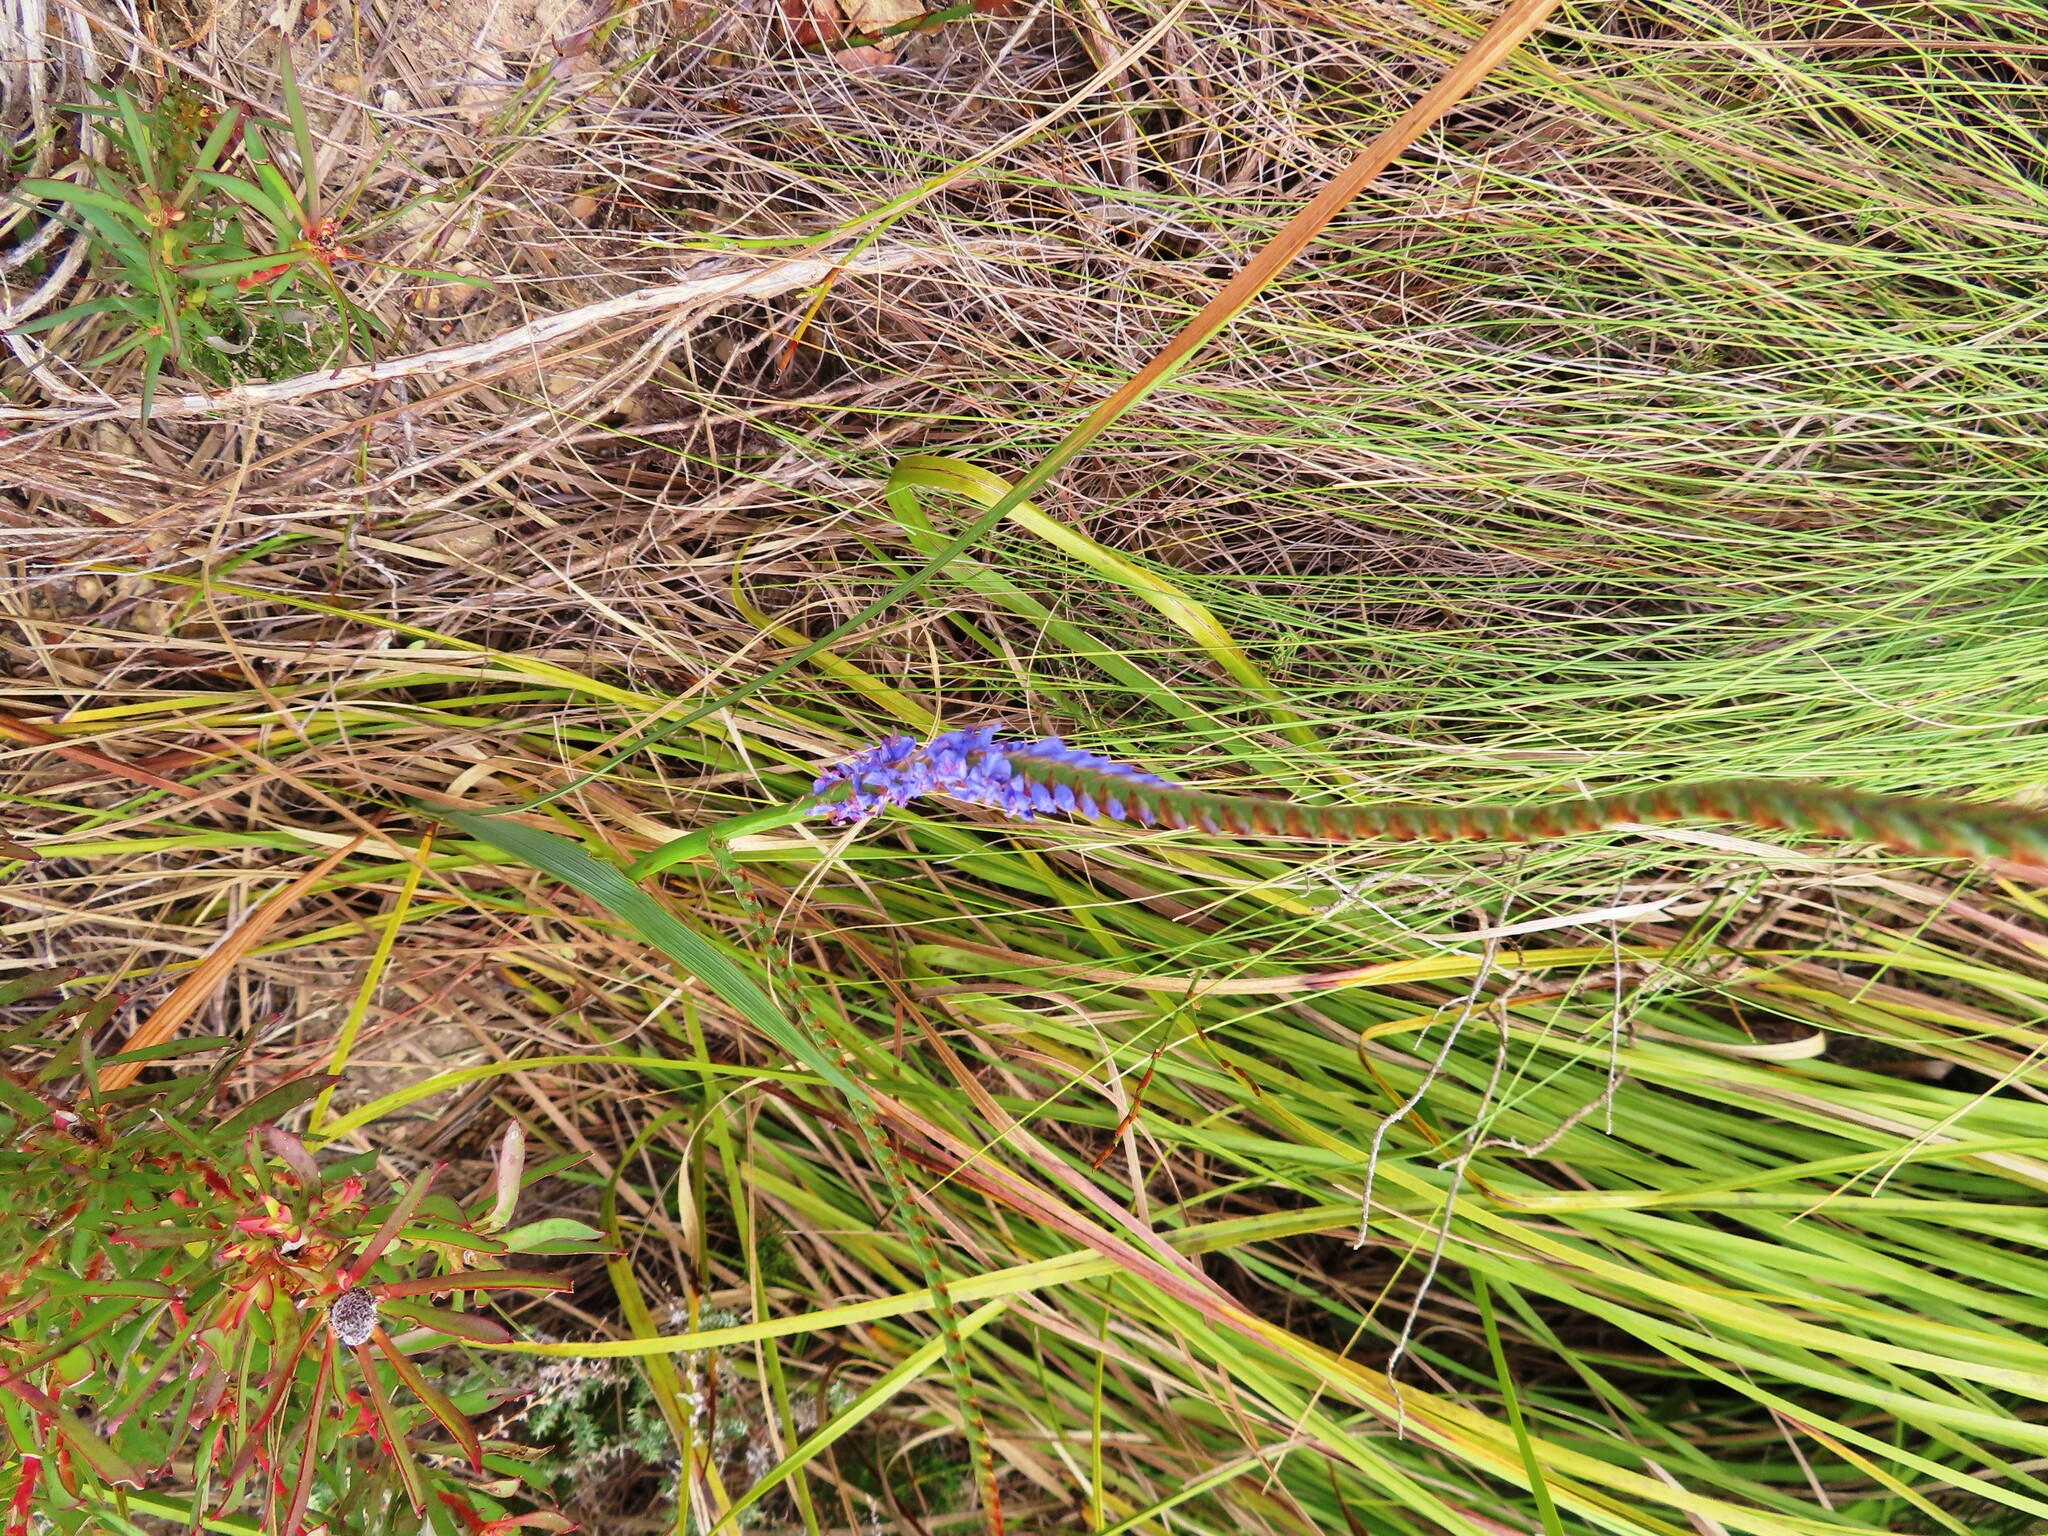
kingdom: Plantae
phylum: Tracheophyta
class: Liliopsida
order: Asparagales
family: Iridaceae
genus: Micranthus
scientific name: Micranthus alopecuroides
